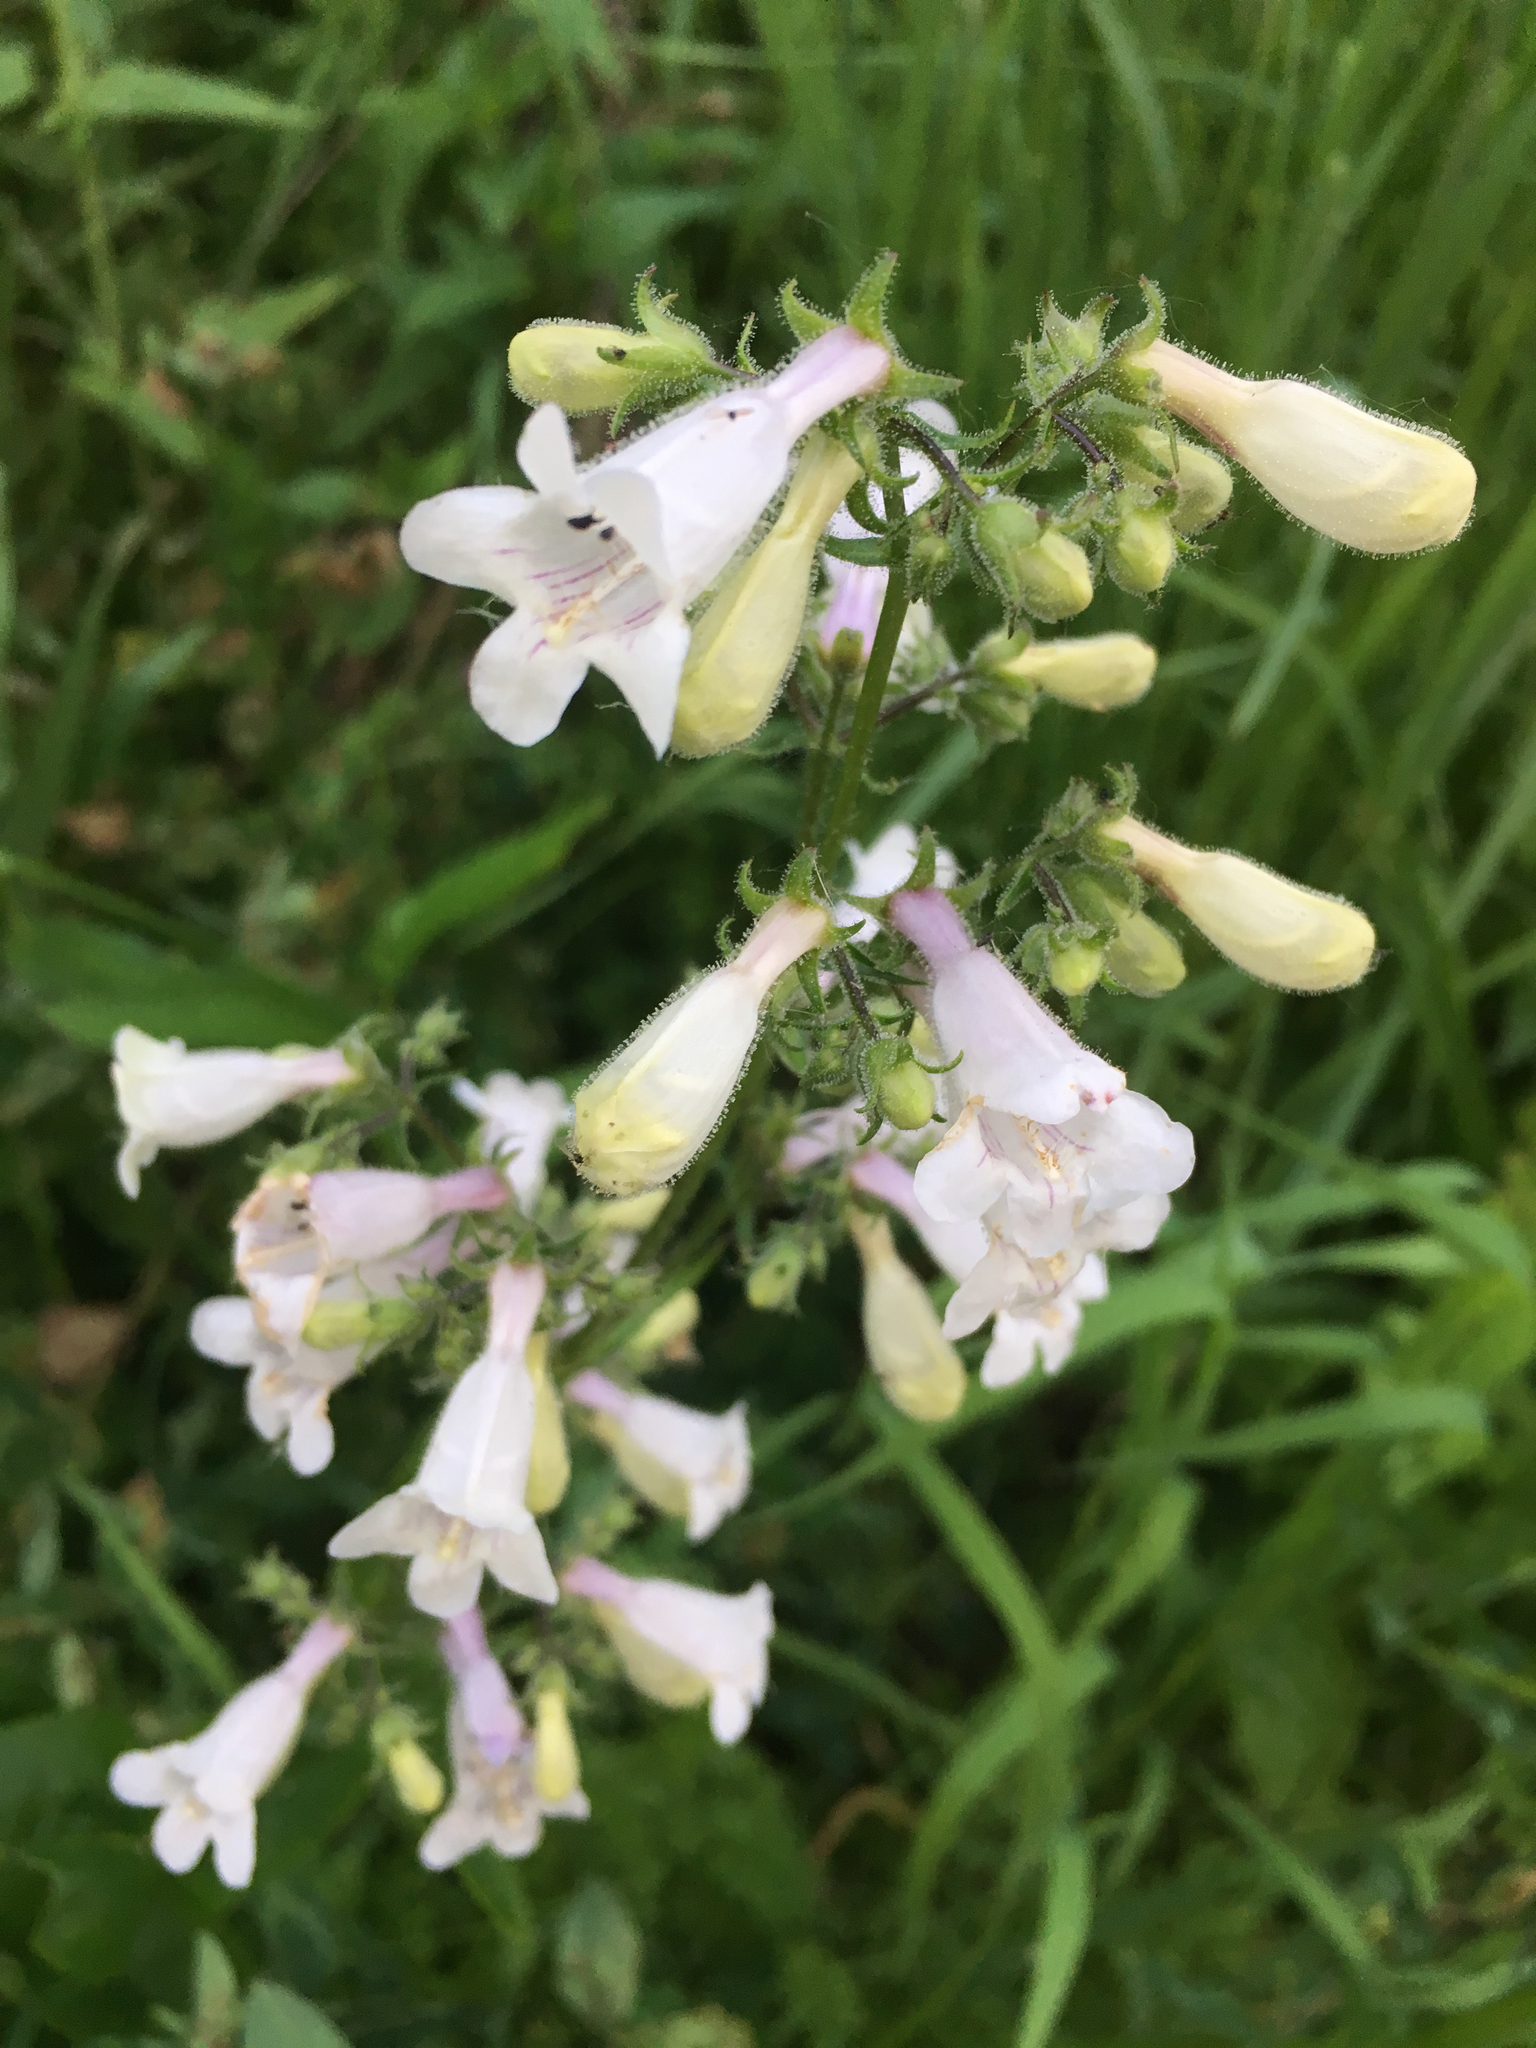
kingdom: Plantae
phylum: Tracheophyta
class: Magnoliopsida
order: Lamiales
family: Plantaginaceae
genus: Penstemon
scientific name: Penstemon hirsutus
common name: Hairy beardtongue
